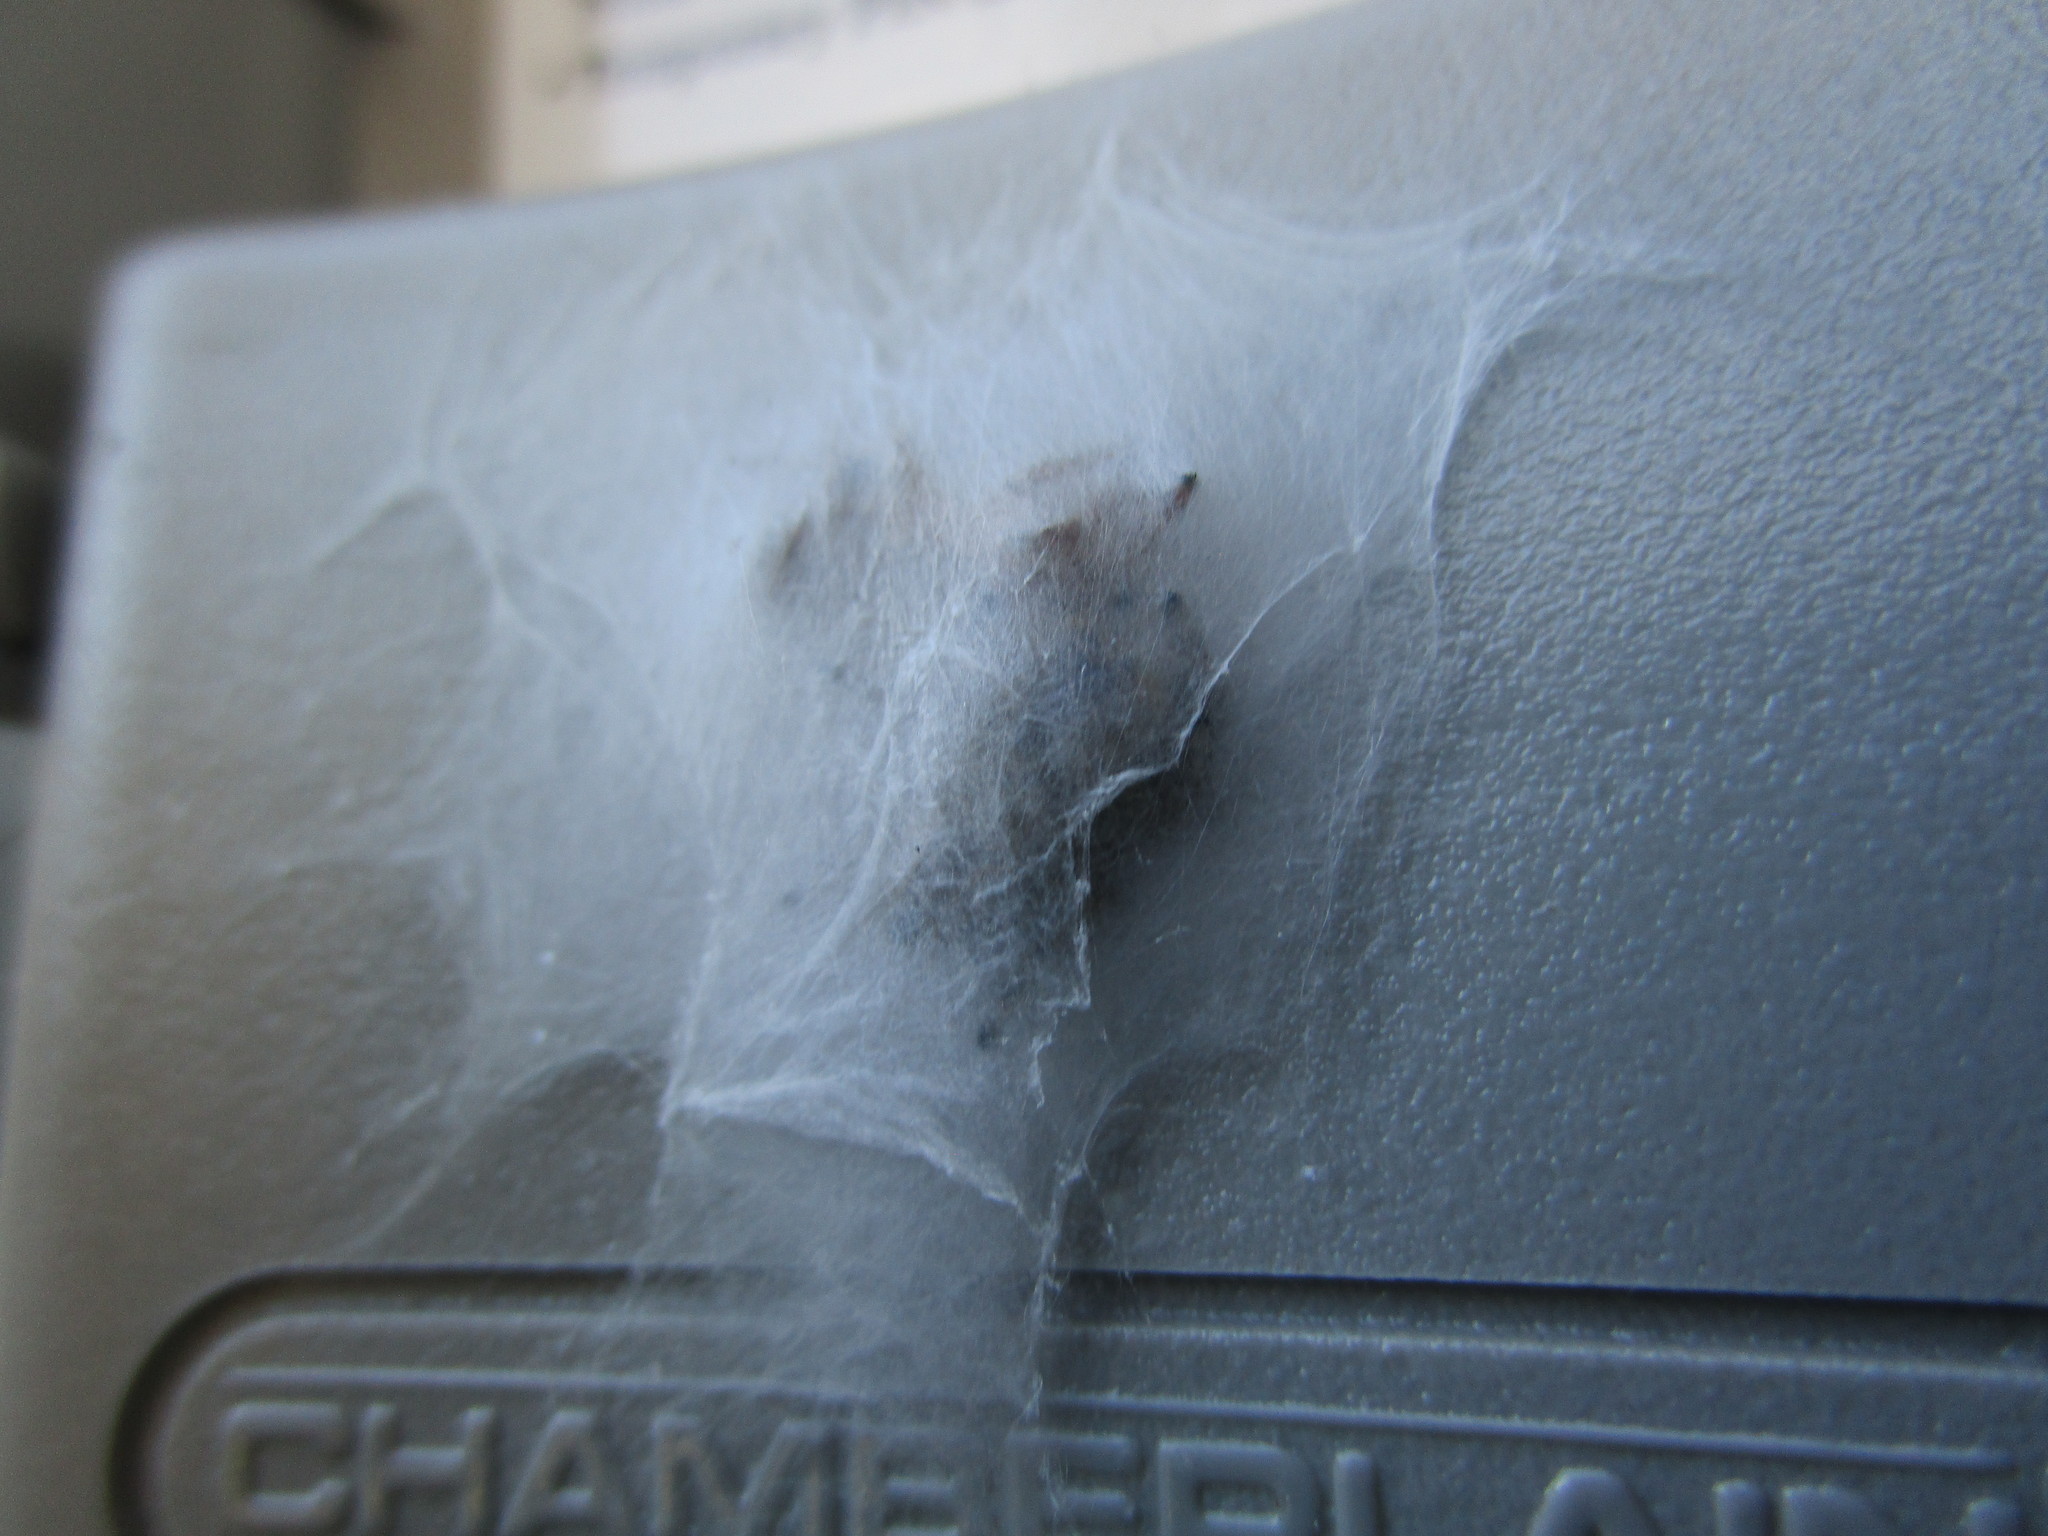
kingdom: Animalia
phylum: Arthropoda
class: Arachnida
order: Araneae
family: Salticidae
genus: Phidippus
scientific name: Phidippus audax
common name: Bold jumper
